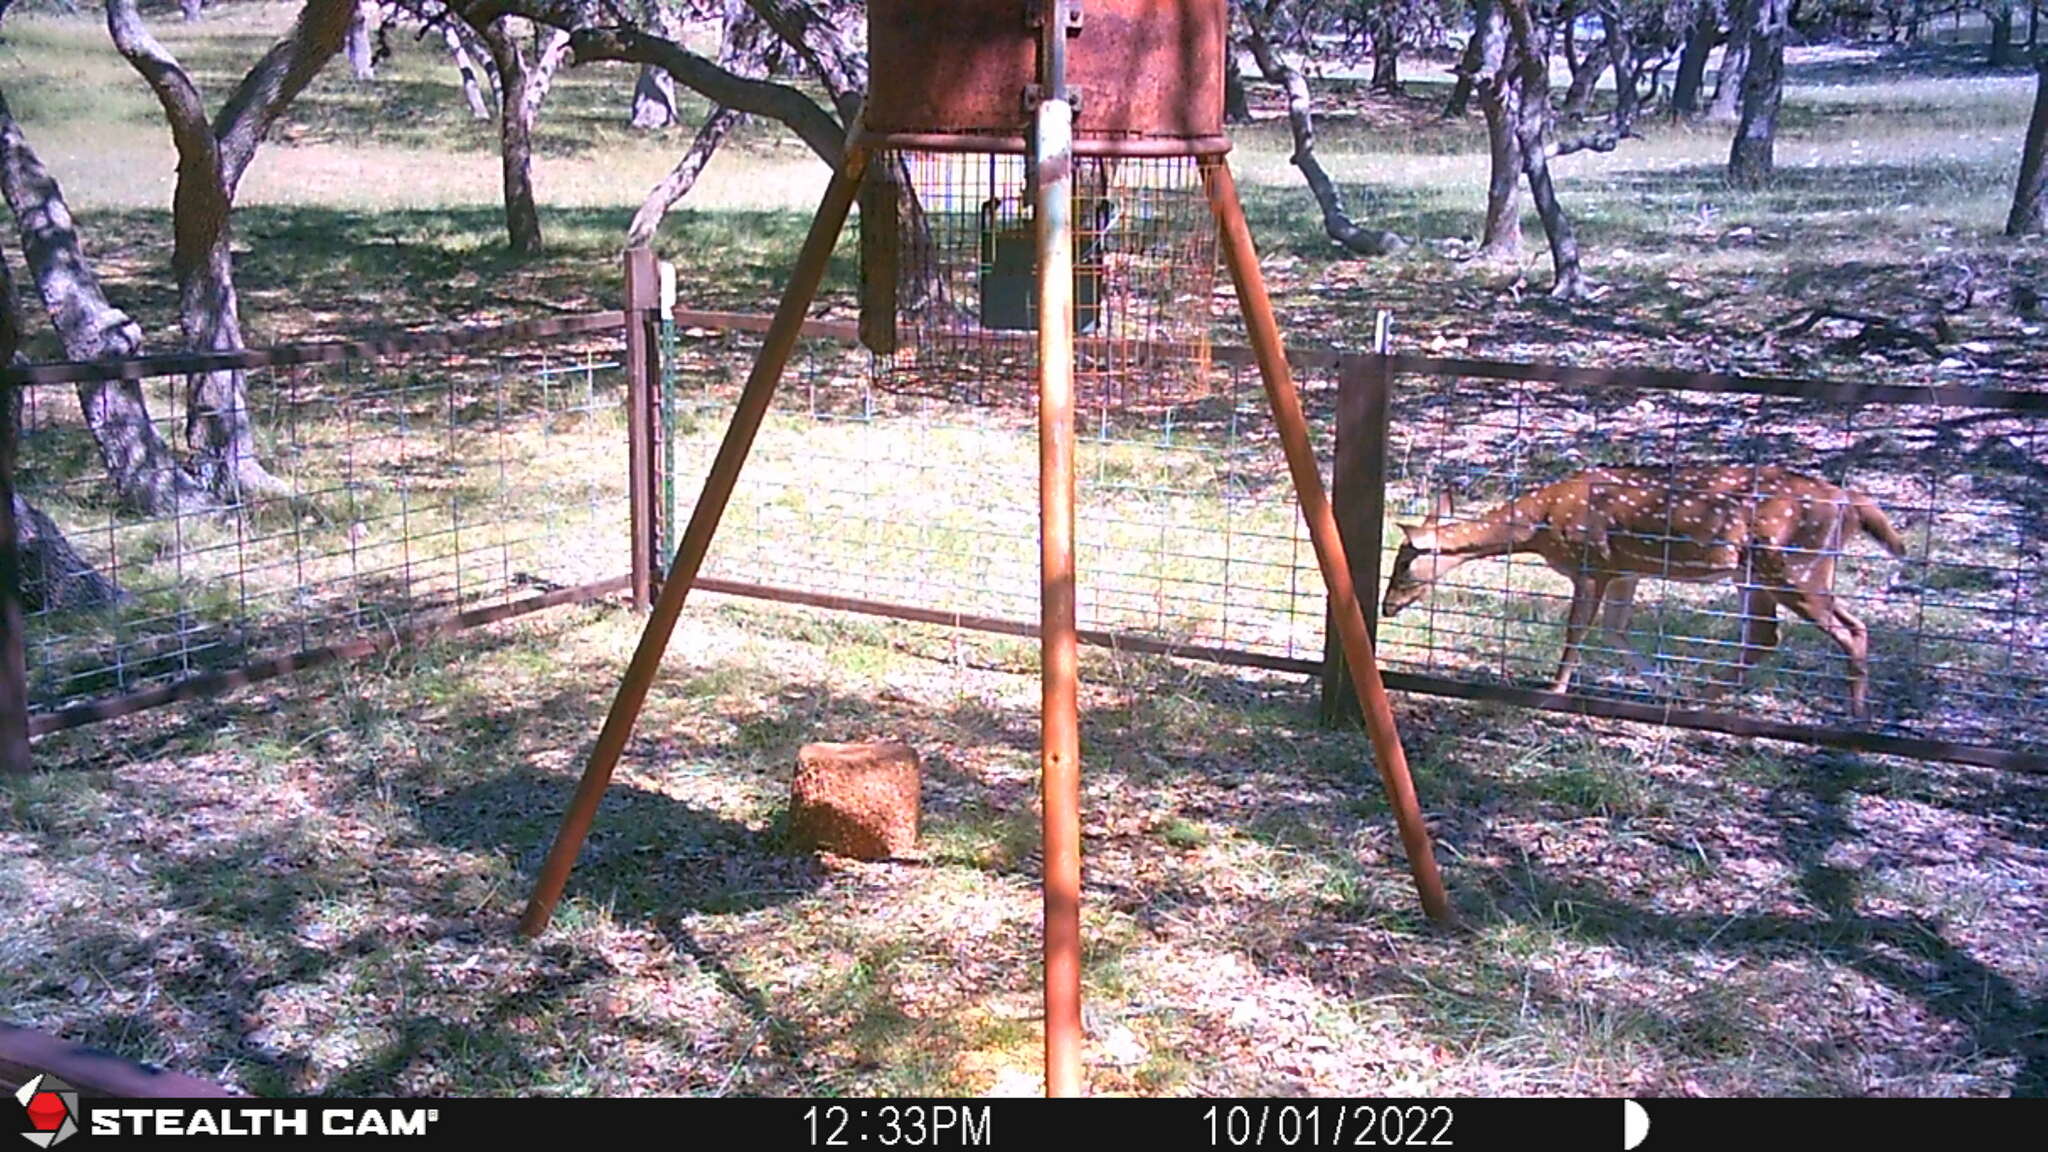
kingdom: Animalia
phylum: Chordata
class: Mammalia
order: Artiodactyla
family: Cervidae
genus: Axis
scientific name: Axis axis
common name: Chital
